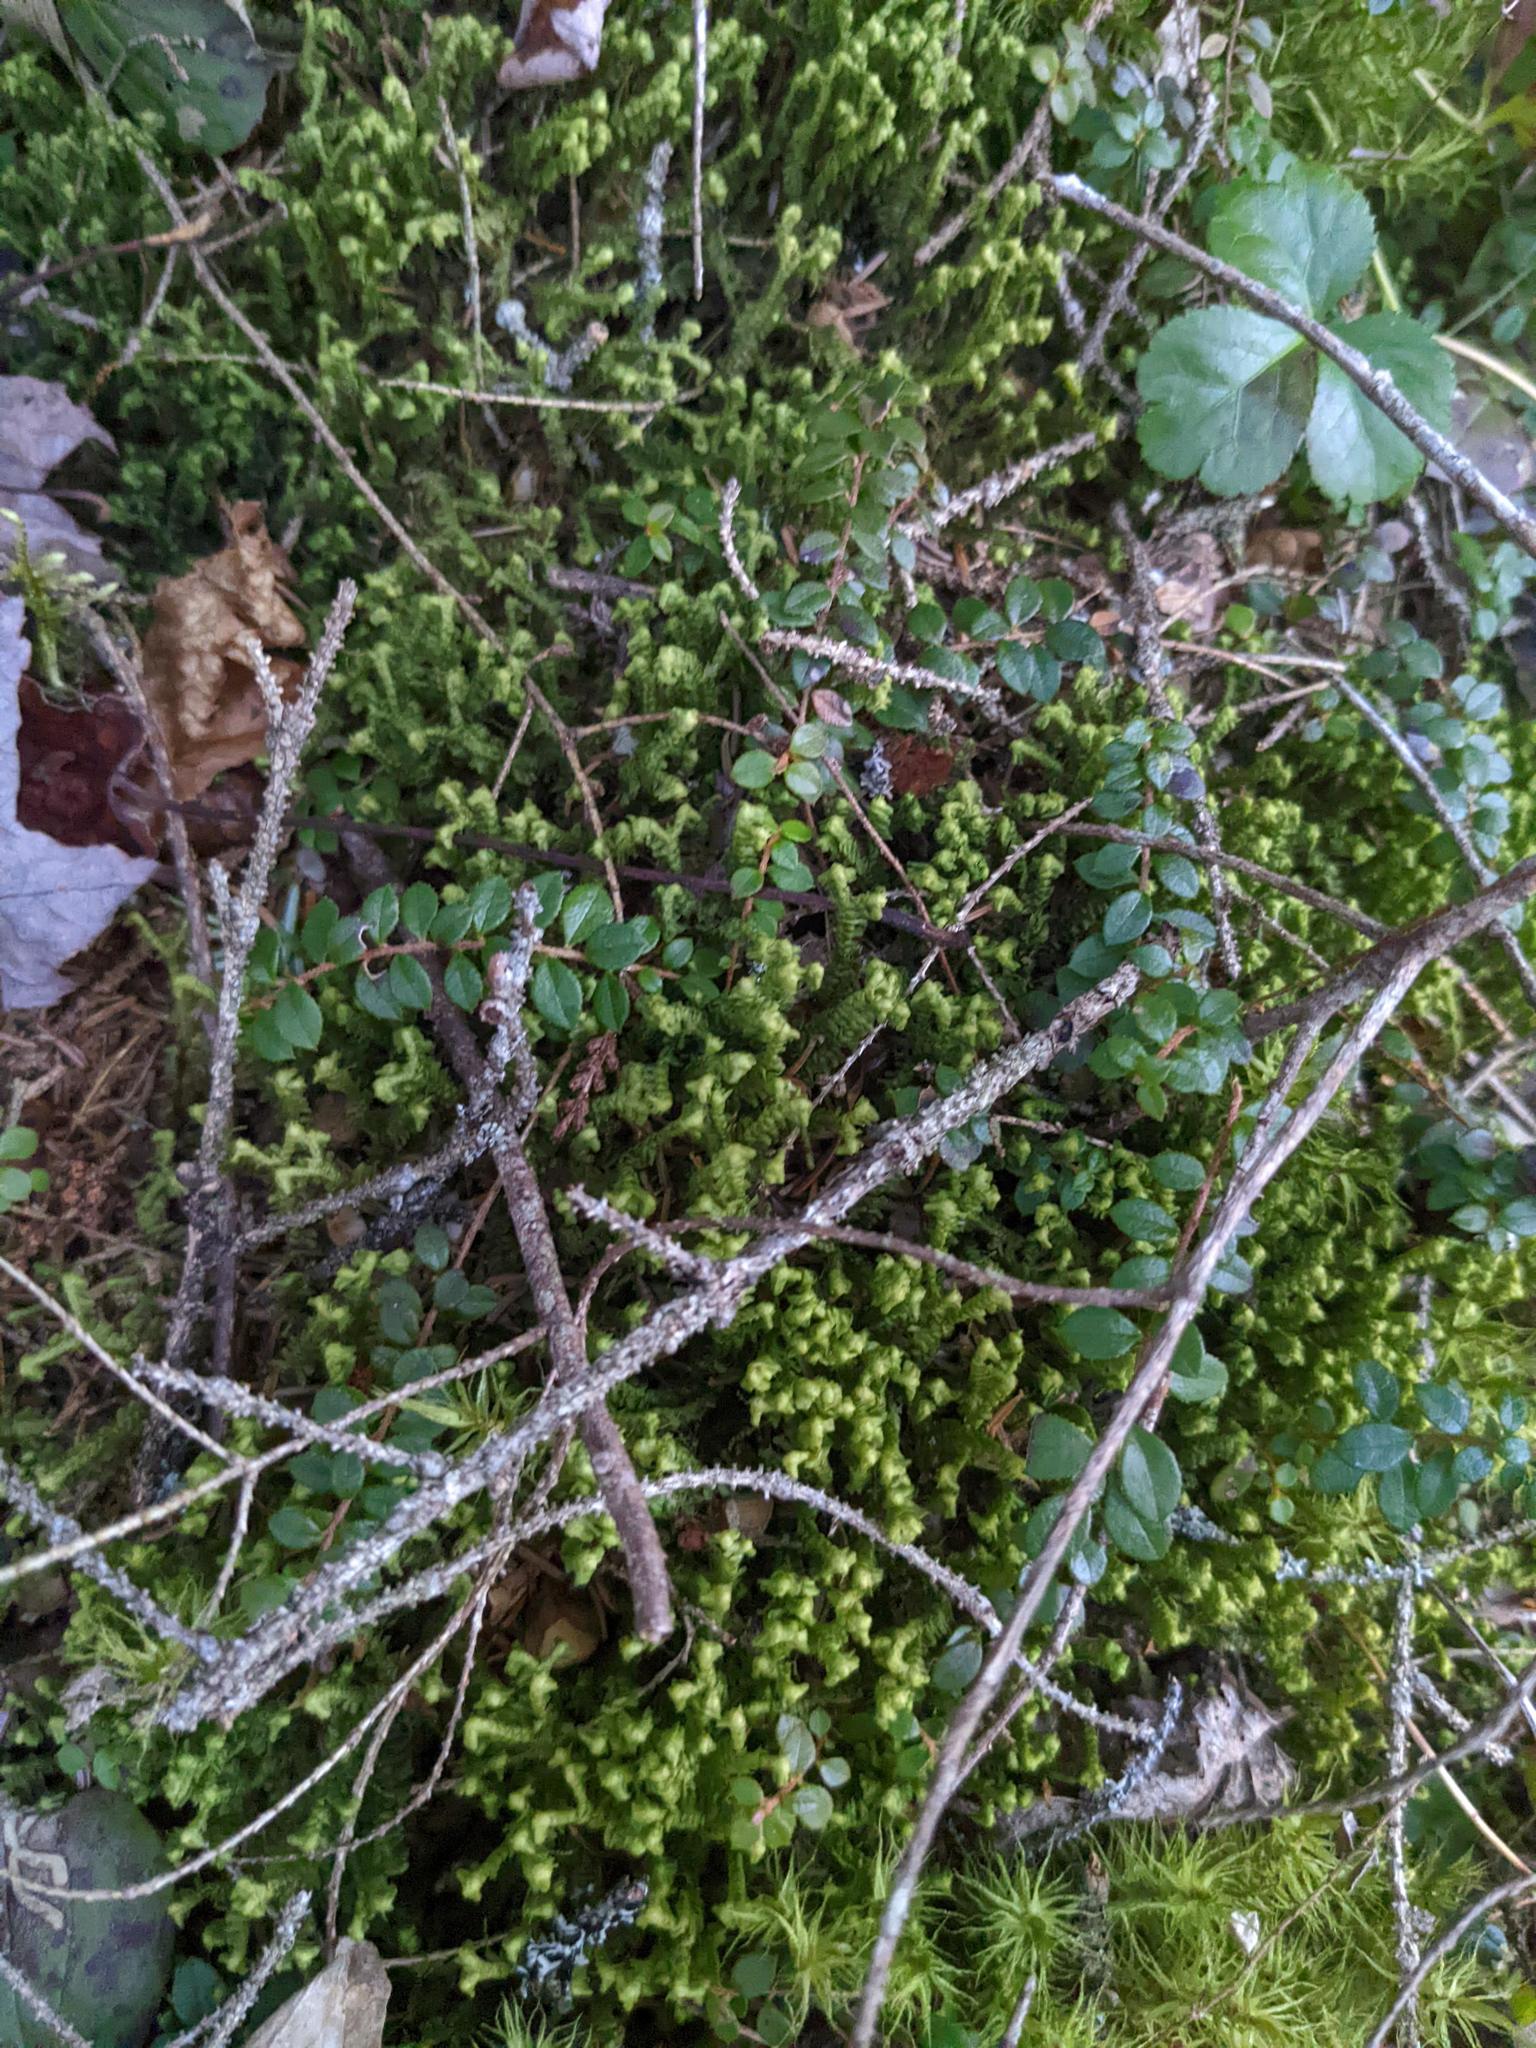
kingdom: Plantae
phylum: Tracheophyta
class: Magnoliopsida
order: Ericales
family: Ericaceae
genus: Gaultheria
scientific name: Gaultheria hispidula
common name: Cancer wintergreen
